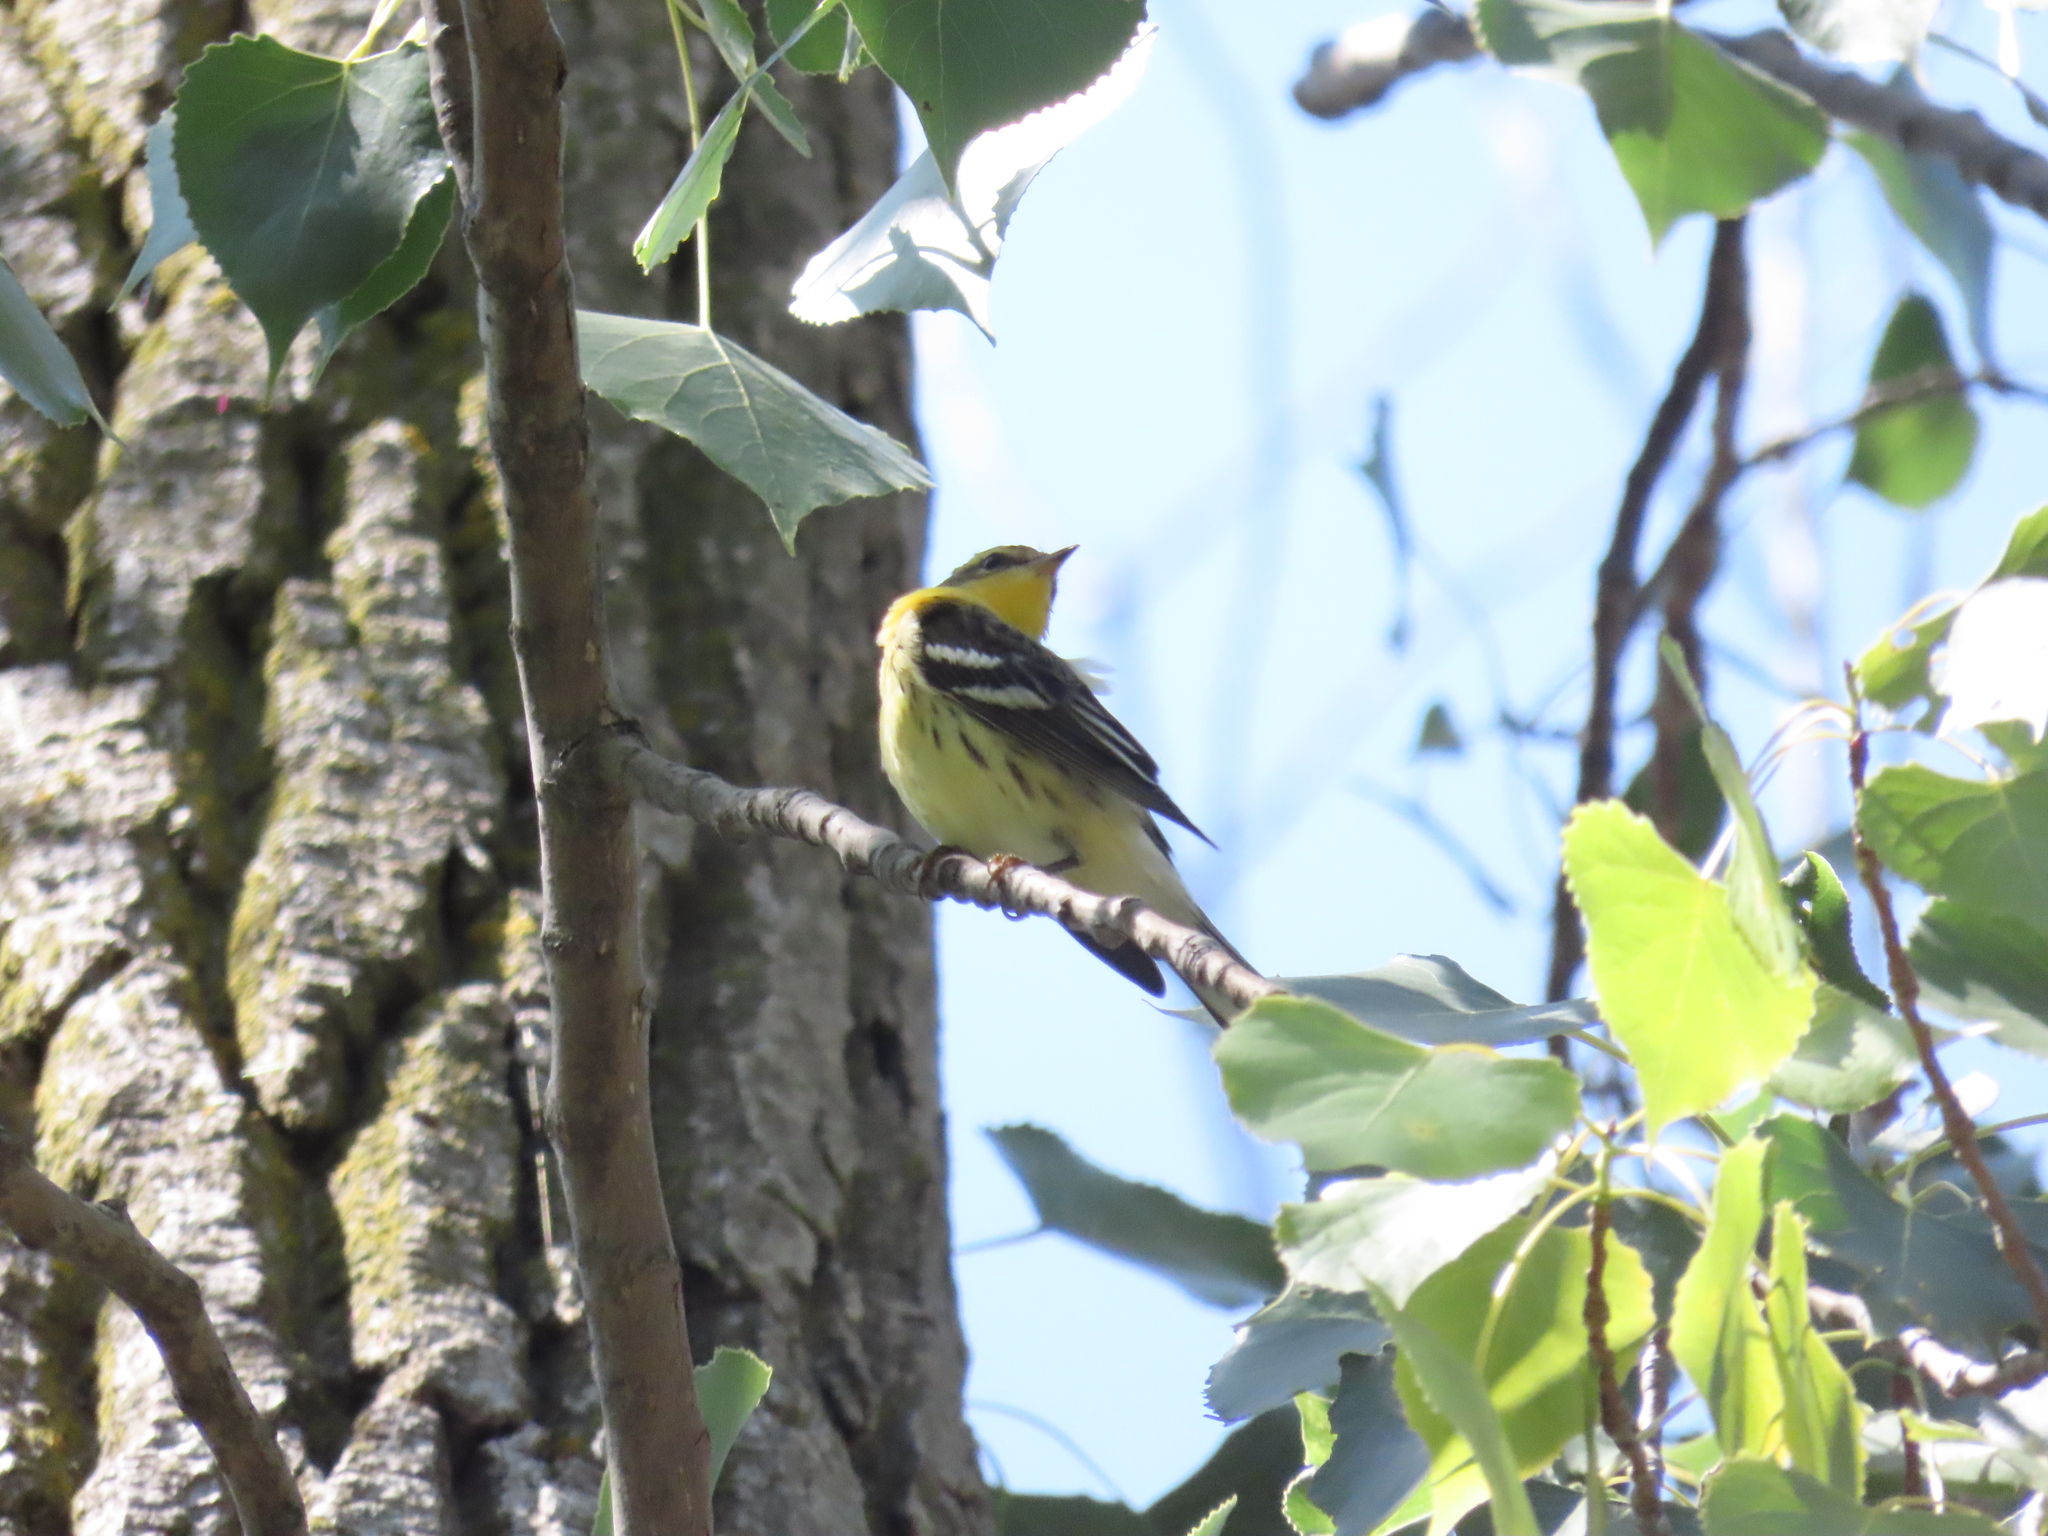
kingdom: Animalia
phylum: Chordata
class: Aves
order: Passeriformes
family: Parulidae
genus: Setophaga
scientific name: Setophaga fusca
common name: Blackburnian warbler
